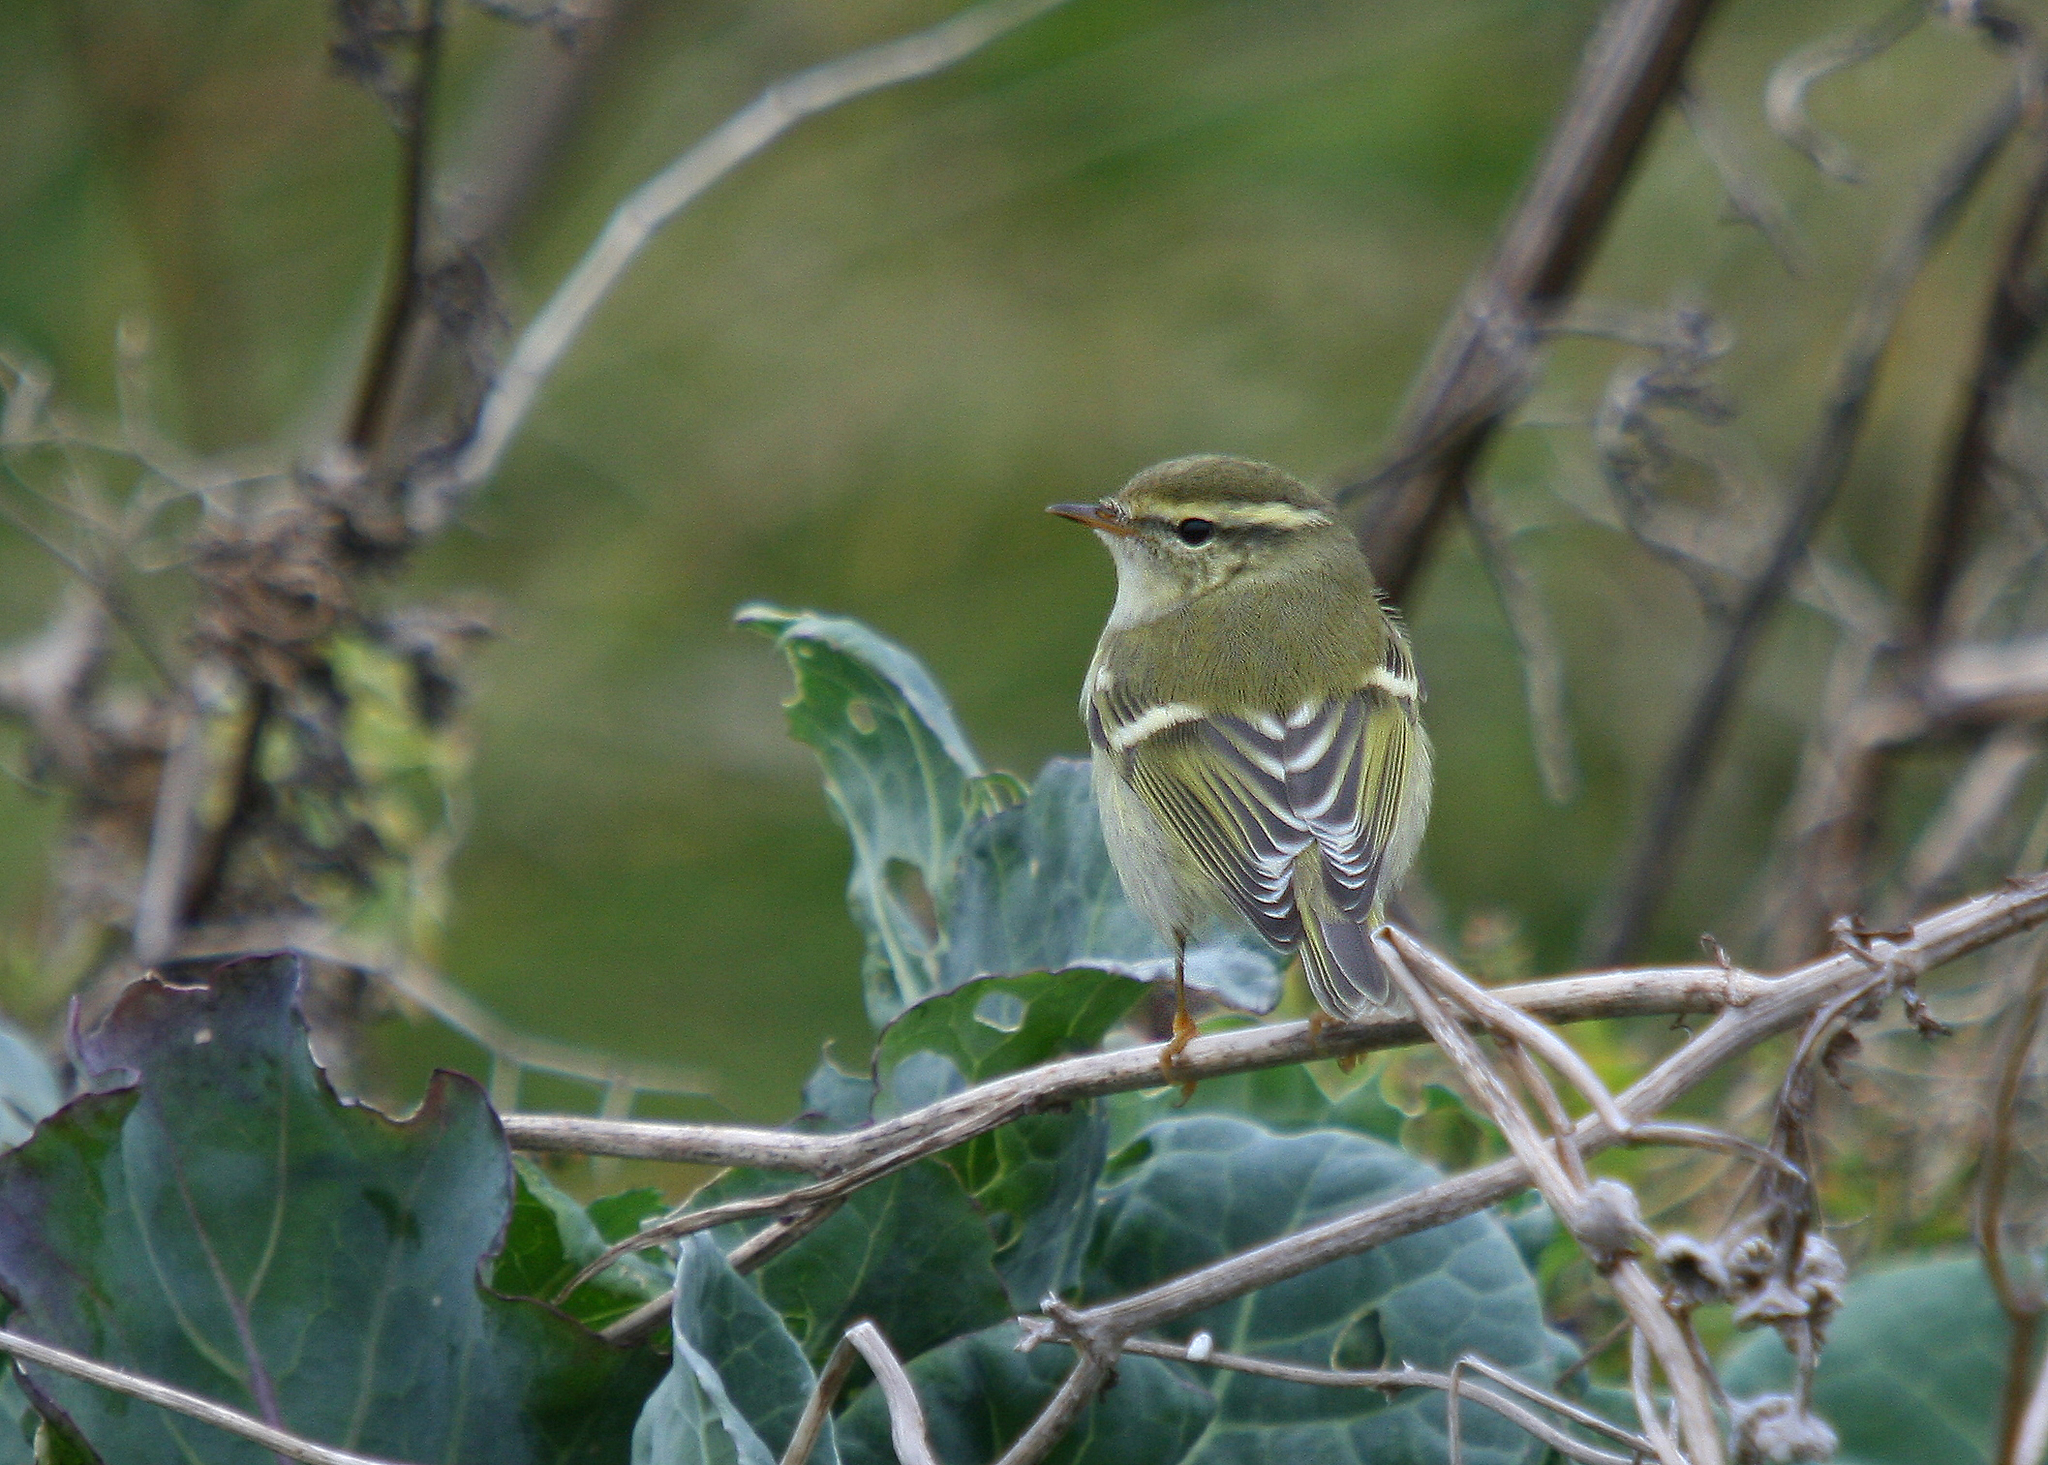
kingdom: Animalia
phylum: Chordata
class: Aves
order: Passeriformes
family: Phylloscopidae
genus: Phylloscopus
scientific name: Phylloscopus inornatus
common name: Yellow-browed warbler
